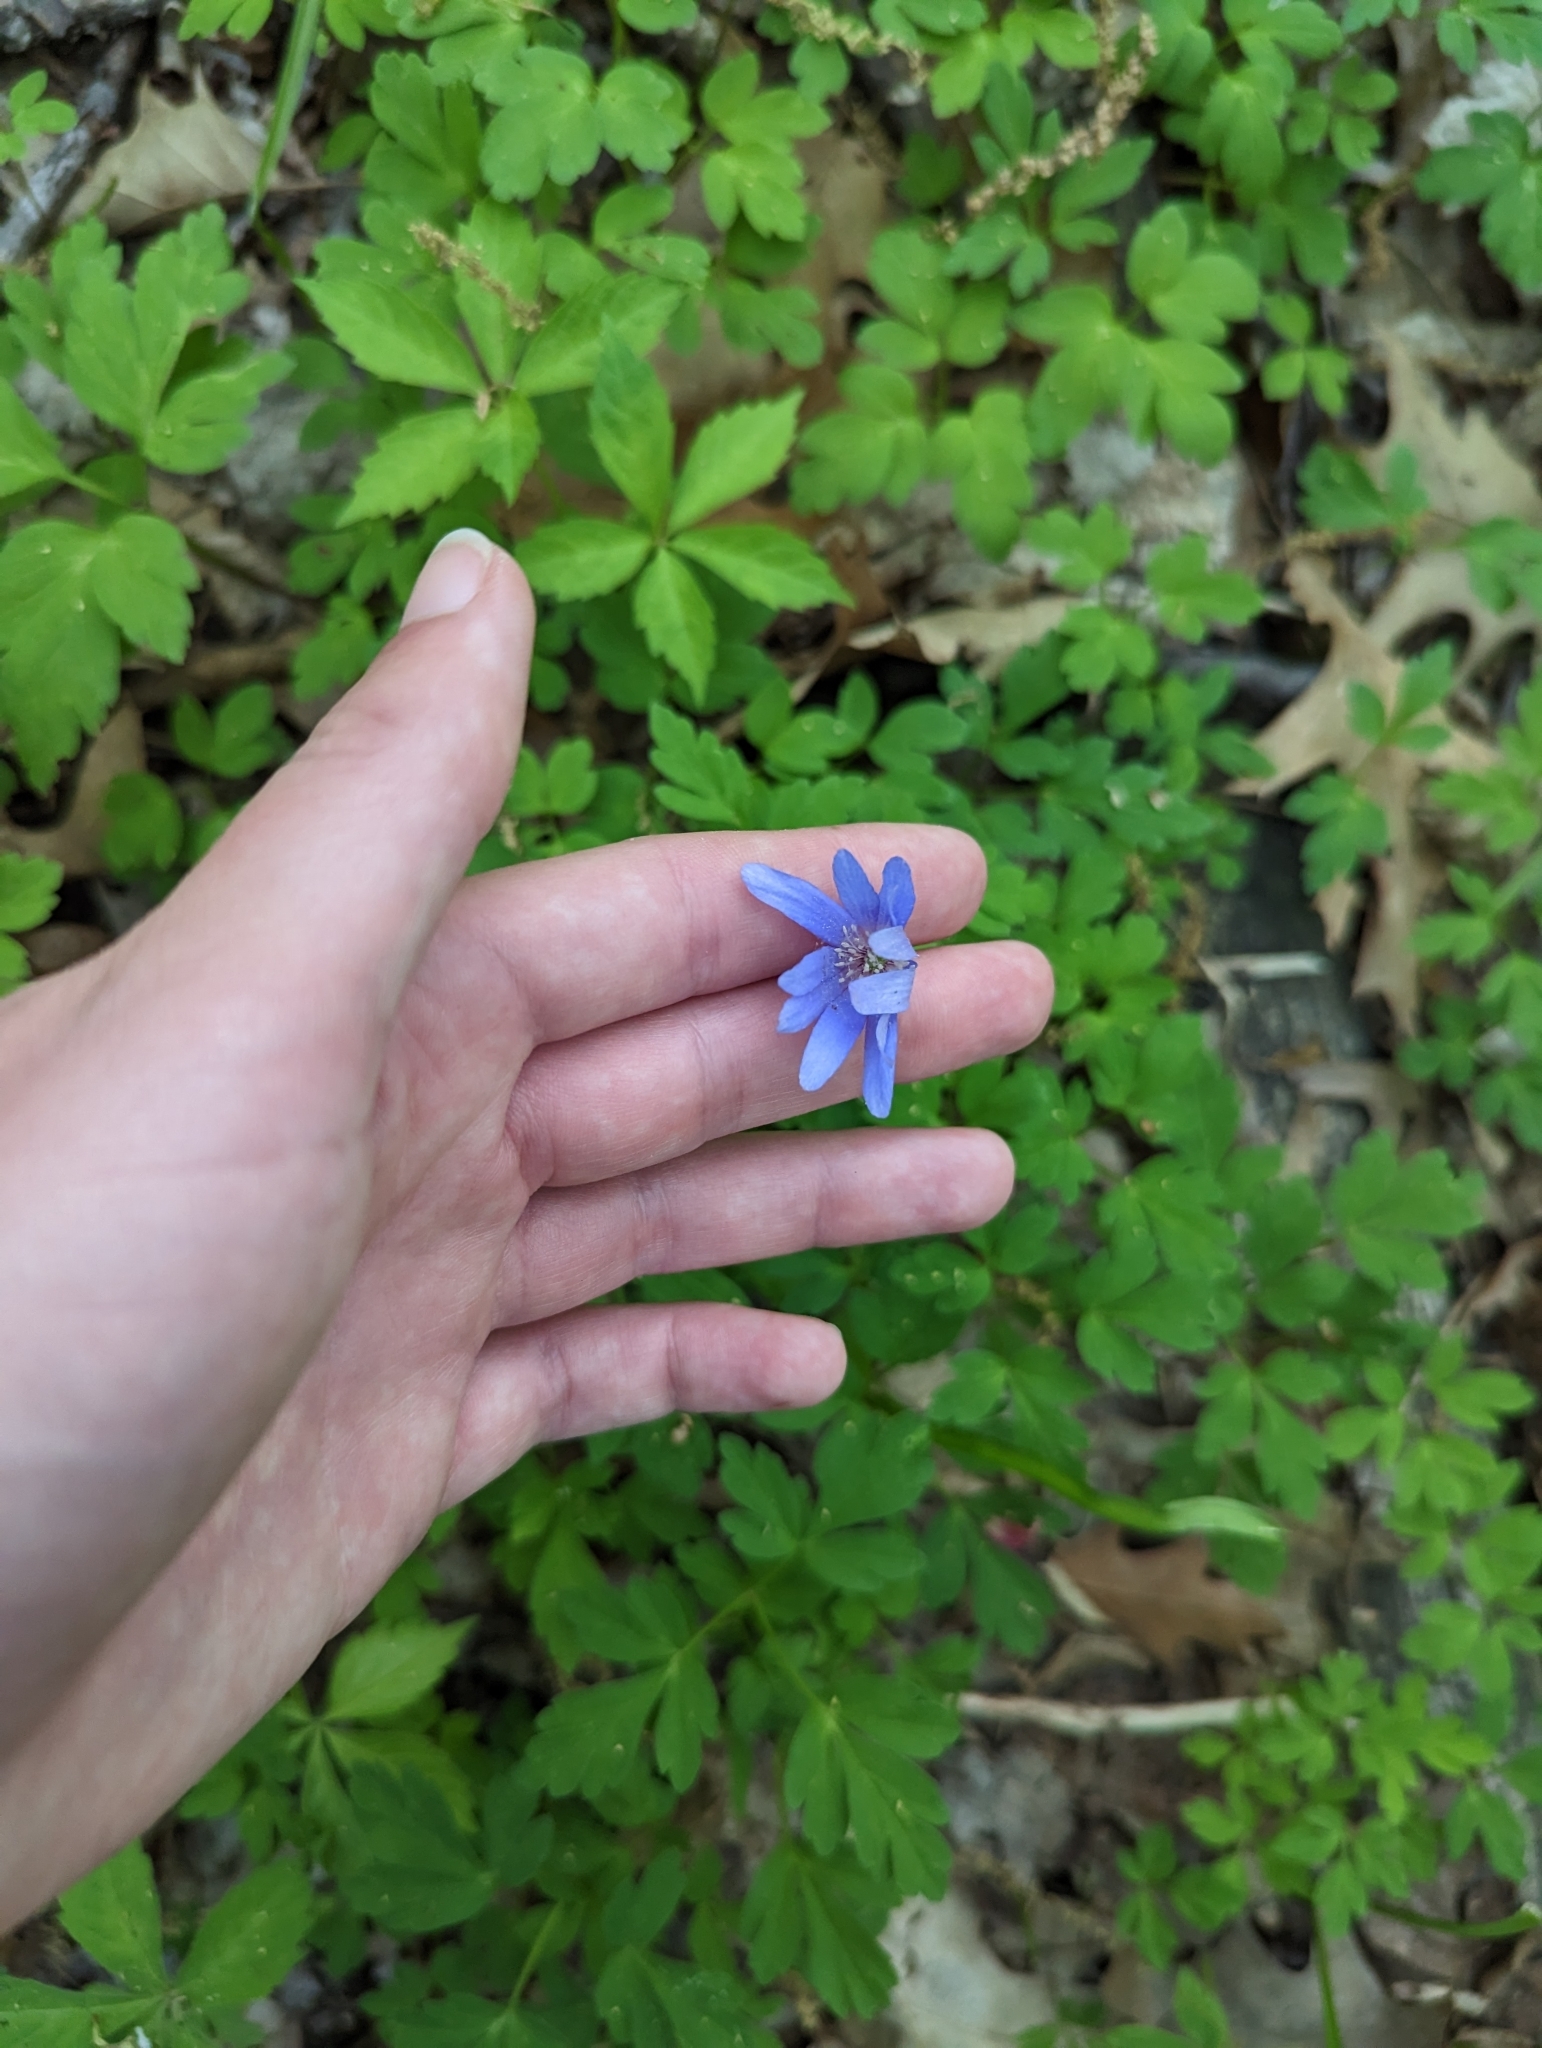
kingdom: Plantae
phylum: Tracheophyta
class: Magnoliopsida
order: Ranunculales
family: Ranunculaceae
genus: Anemone
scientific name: Anemone apennina
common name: Blue anemone
